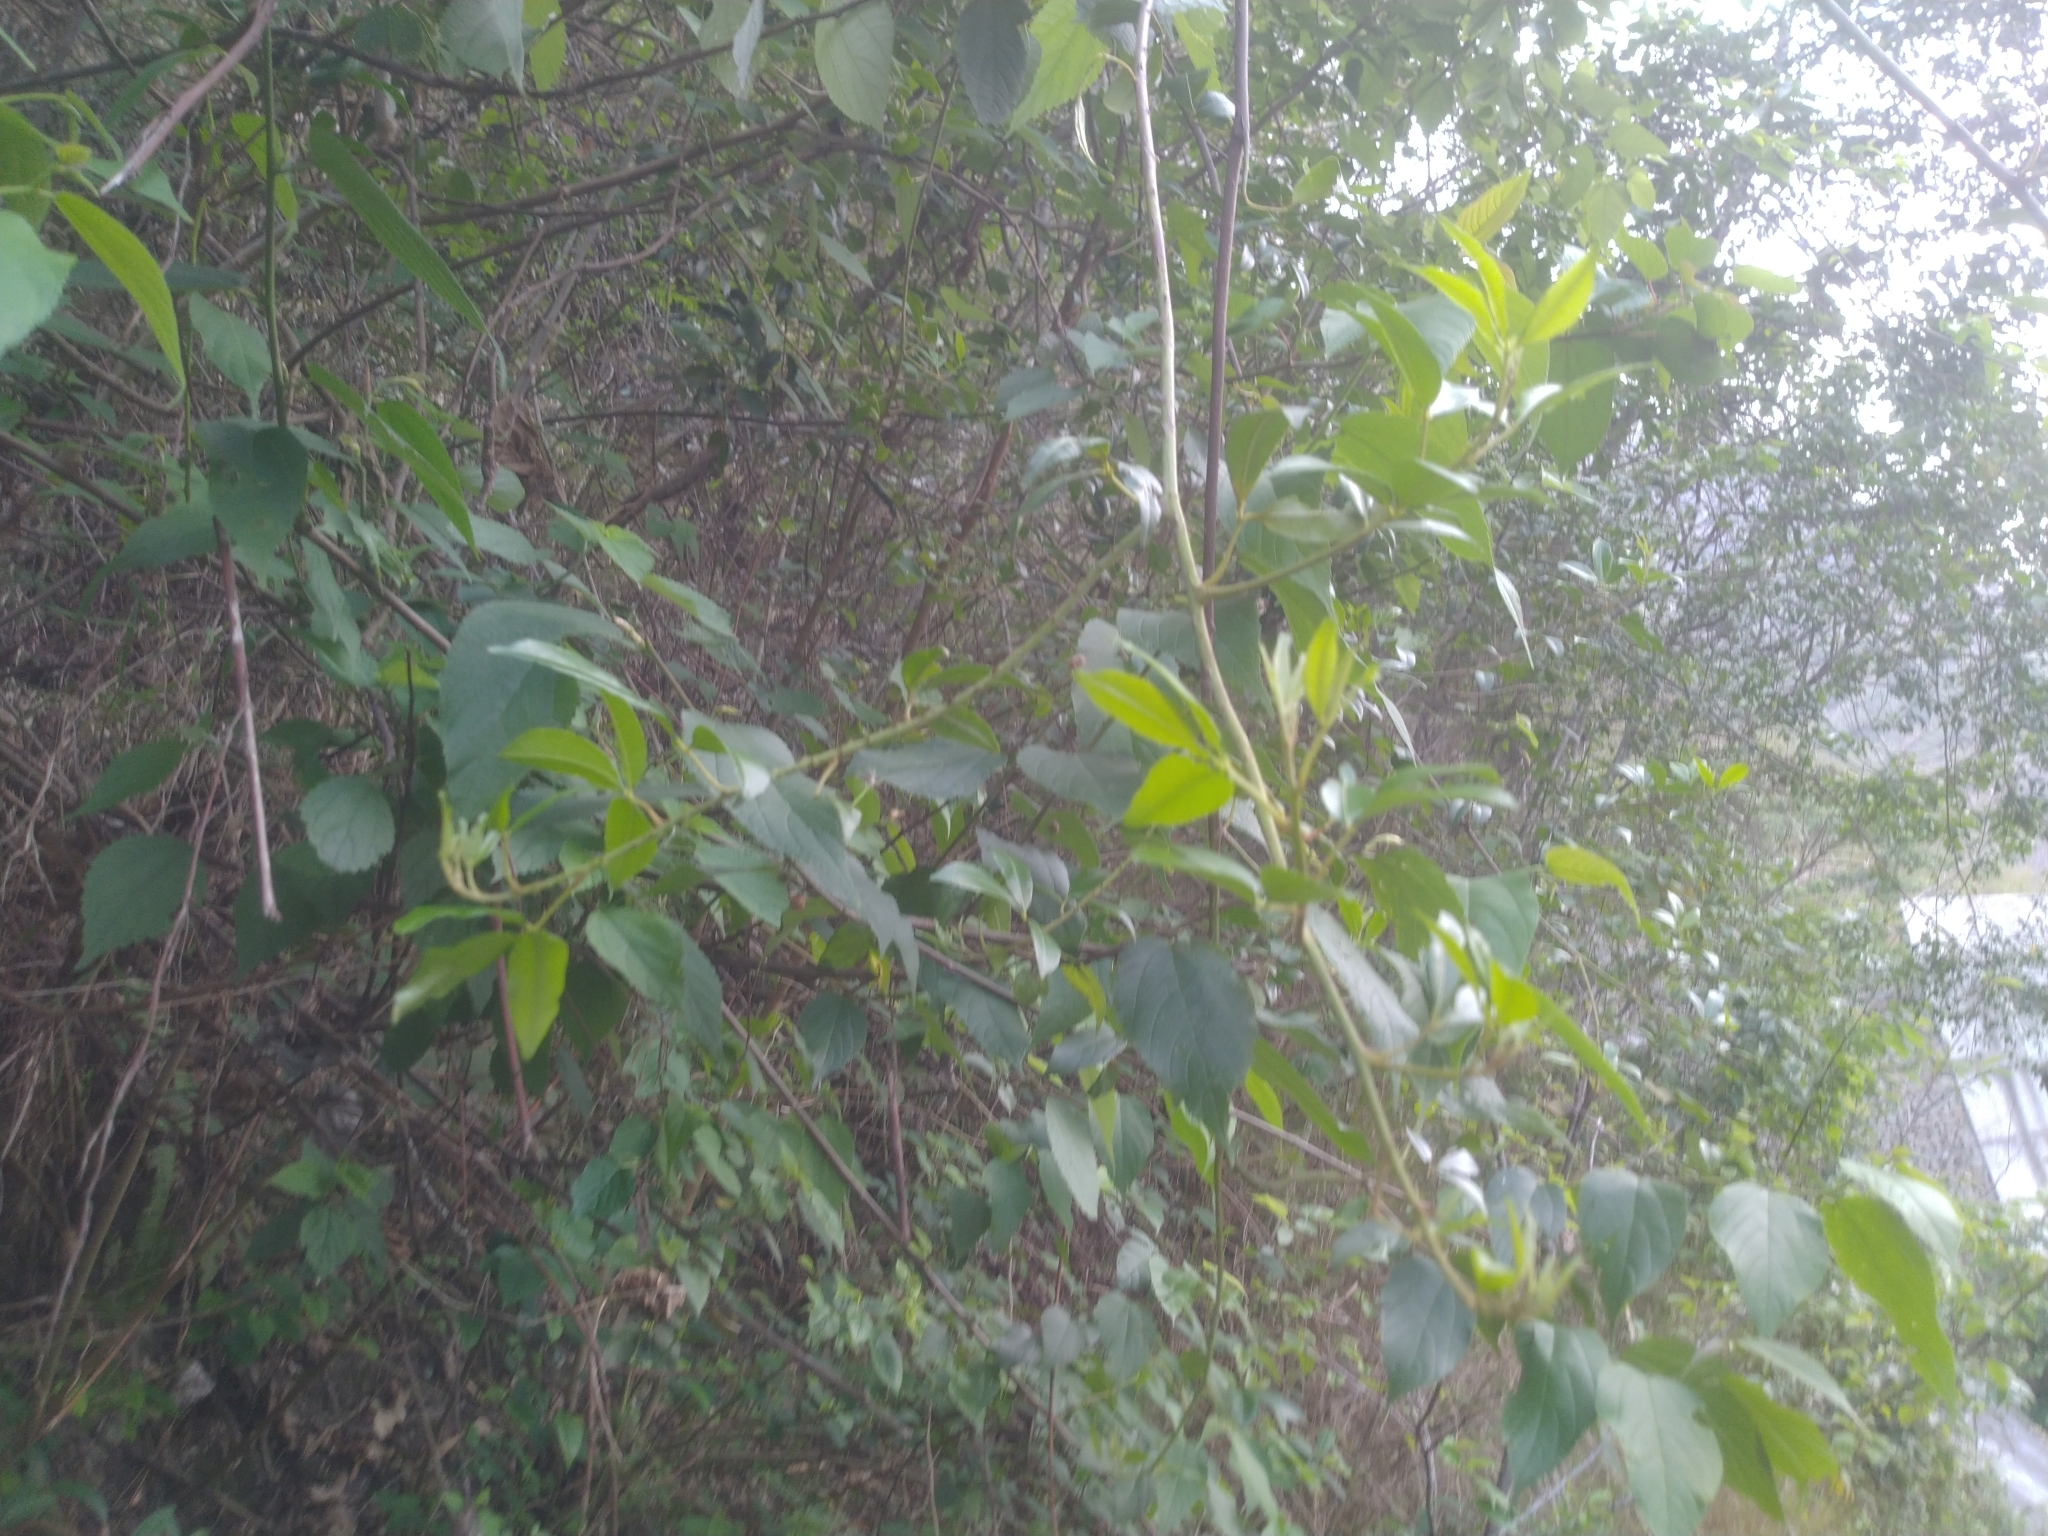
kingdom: Plantae
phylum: Tracheophyta
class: Magnoliopsida
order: Sapindales
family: Rutaceae
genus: Zanthoxylum
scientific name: Zanthoxylum asiaticum
